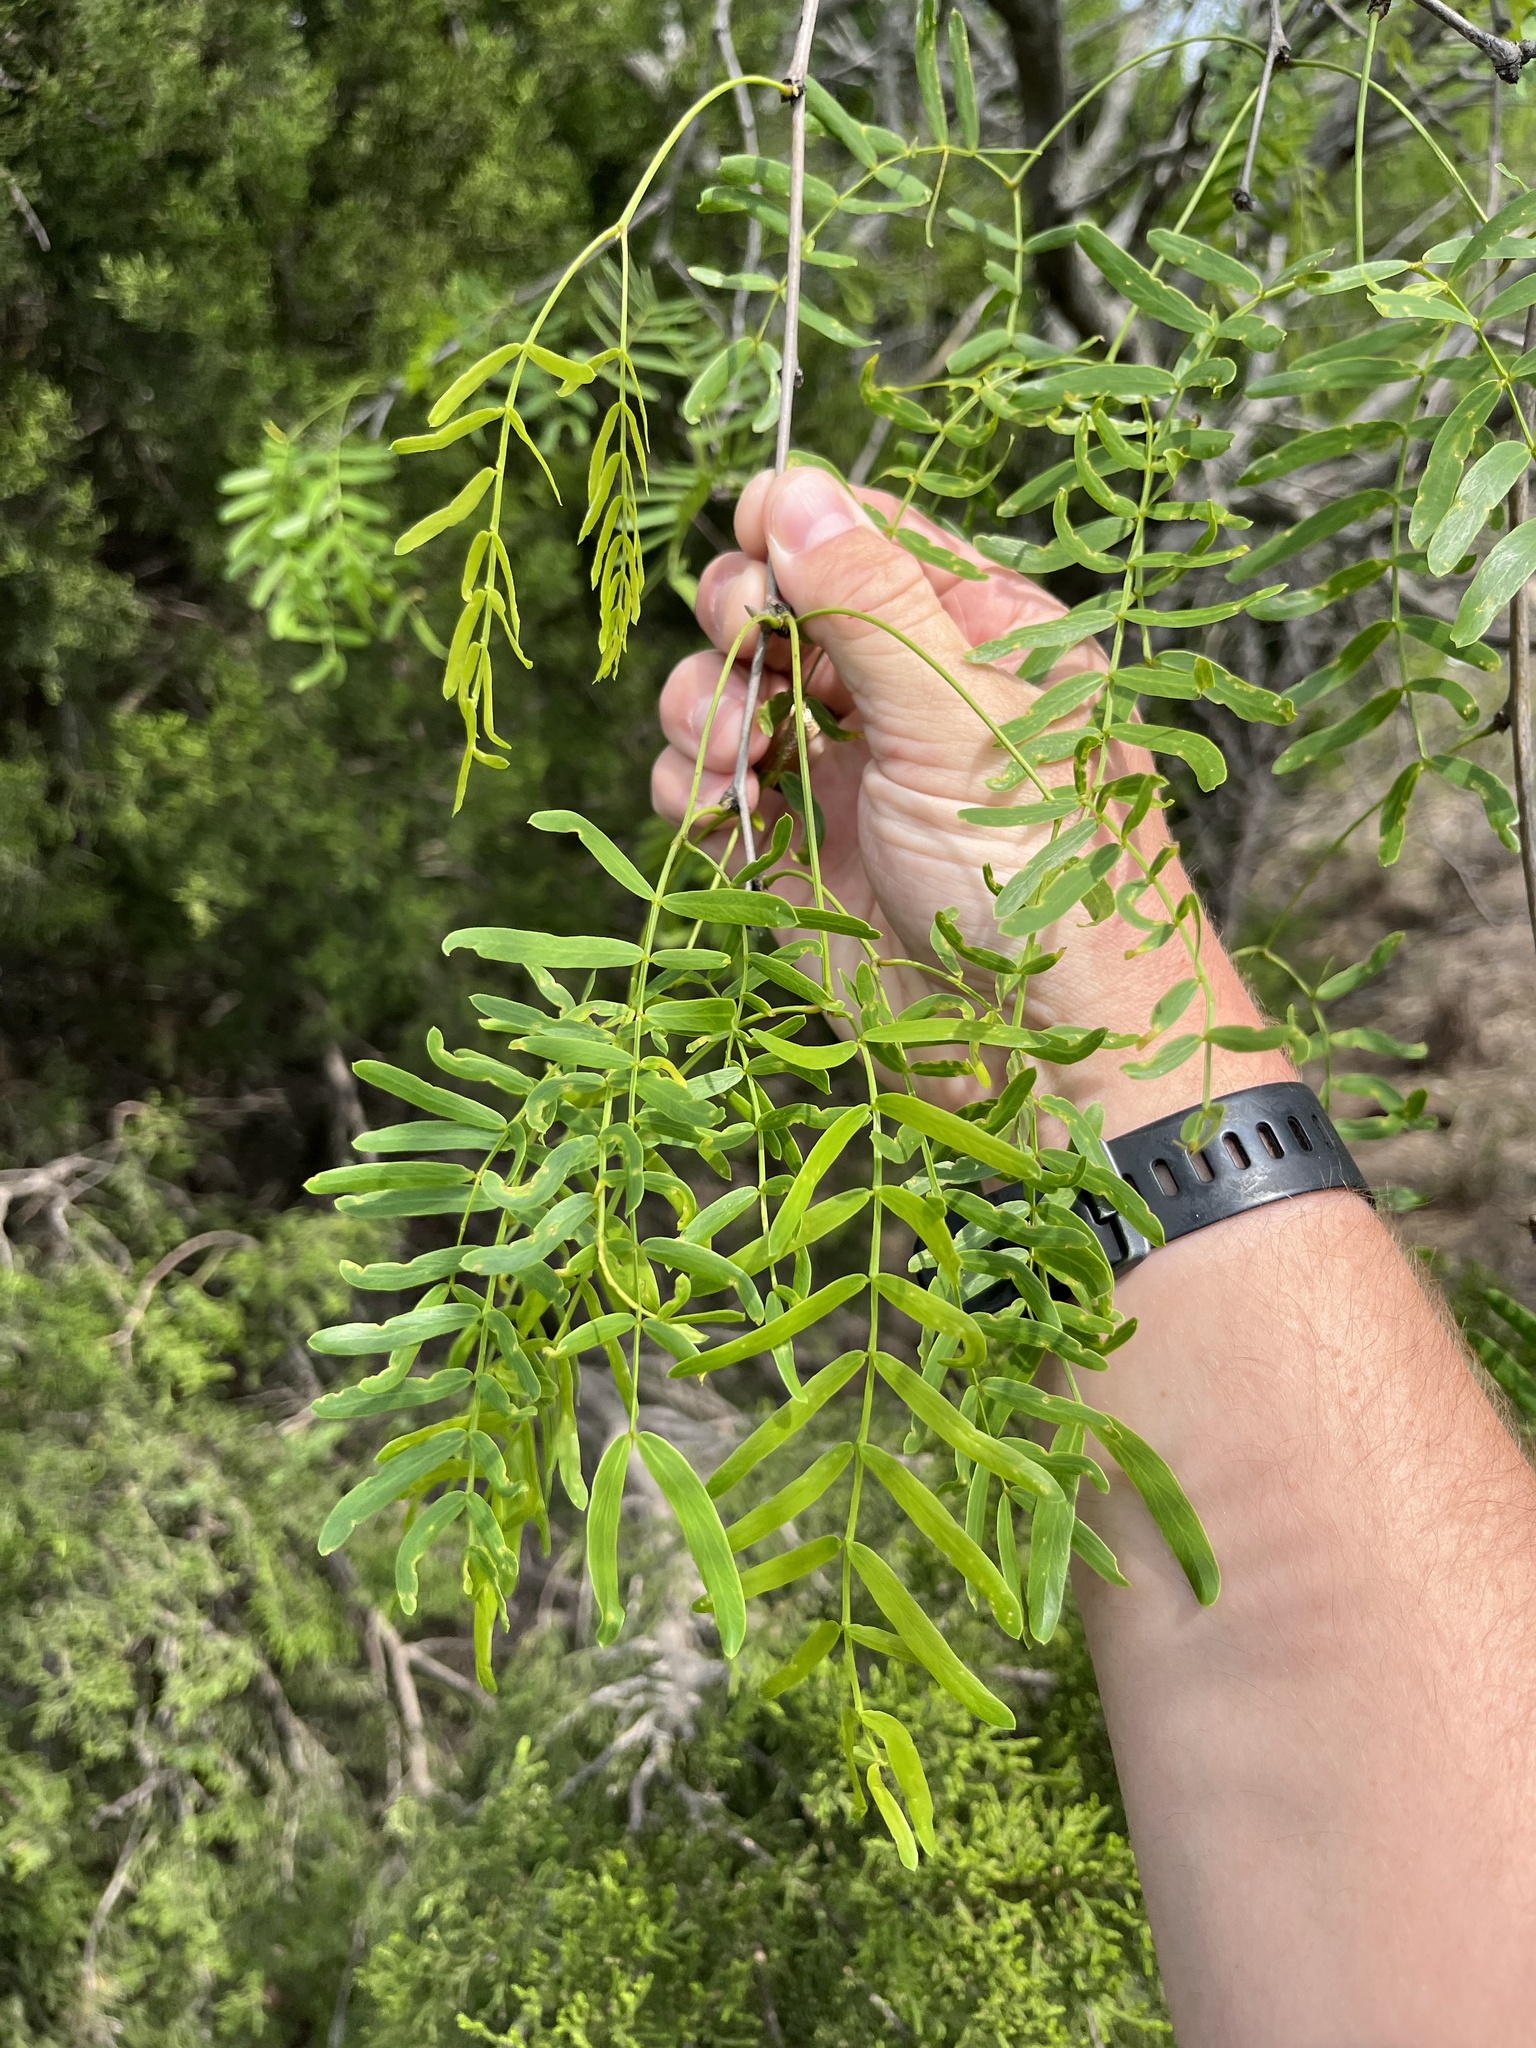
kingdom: Plantae
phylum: Tracheophyta
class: Magnoliopsida
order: Fabales
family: Fabaceae
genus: Prosopis
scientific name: Prosopis glandulosa
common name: Honey mesquite
